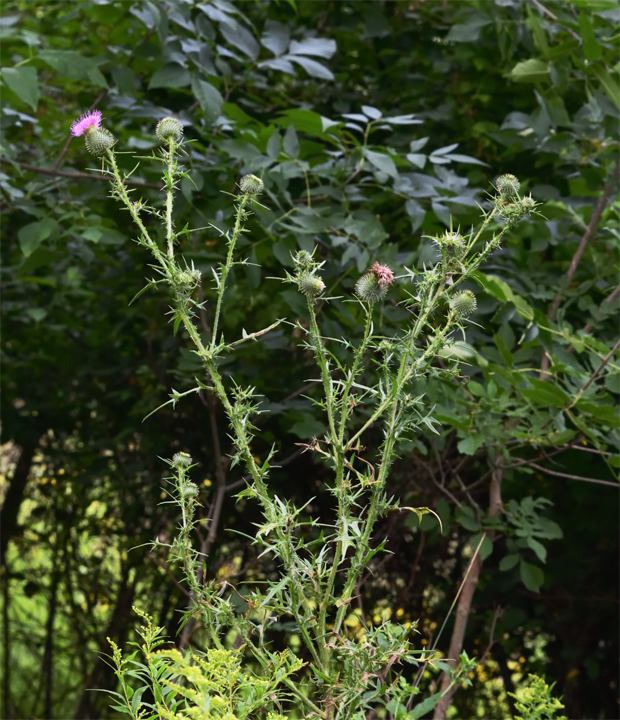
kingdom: Plantae
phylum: Tracheophyta
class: Magnoliopsida
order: Asterales
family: Asteraceae
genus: Cirsium
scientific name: Cirsium vulgare
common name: Bull thistle
